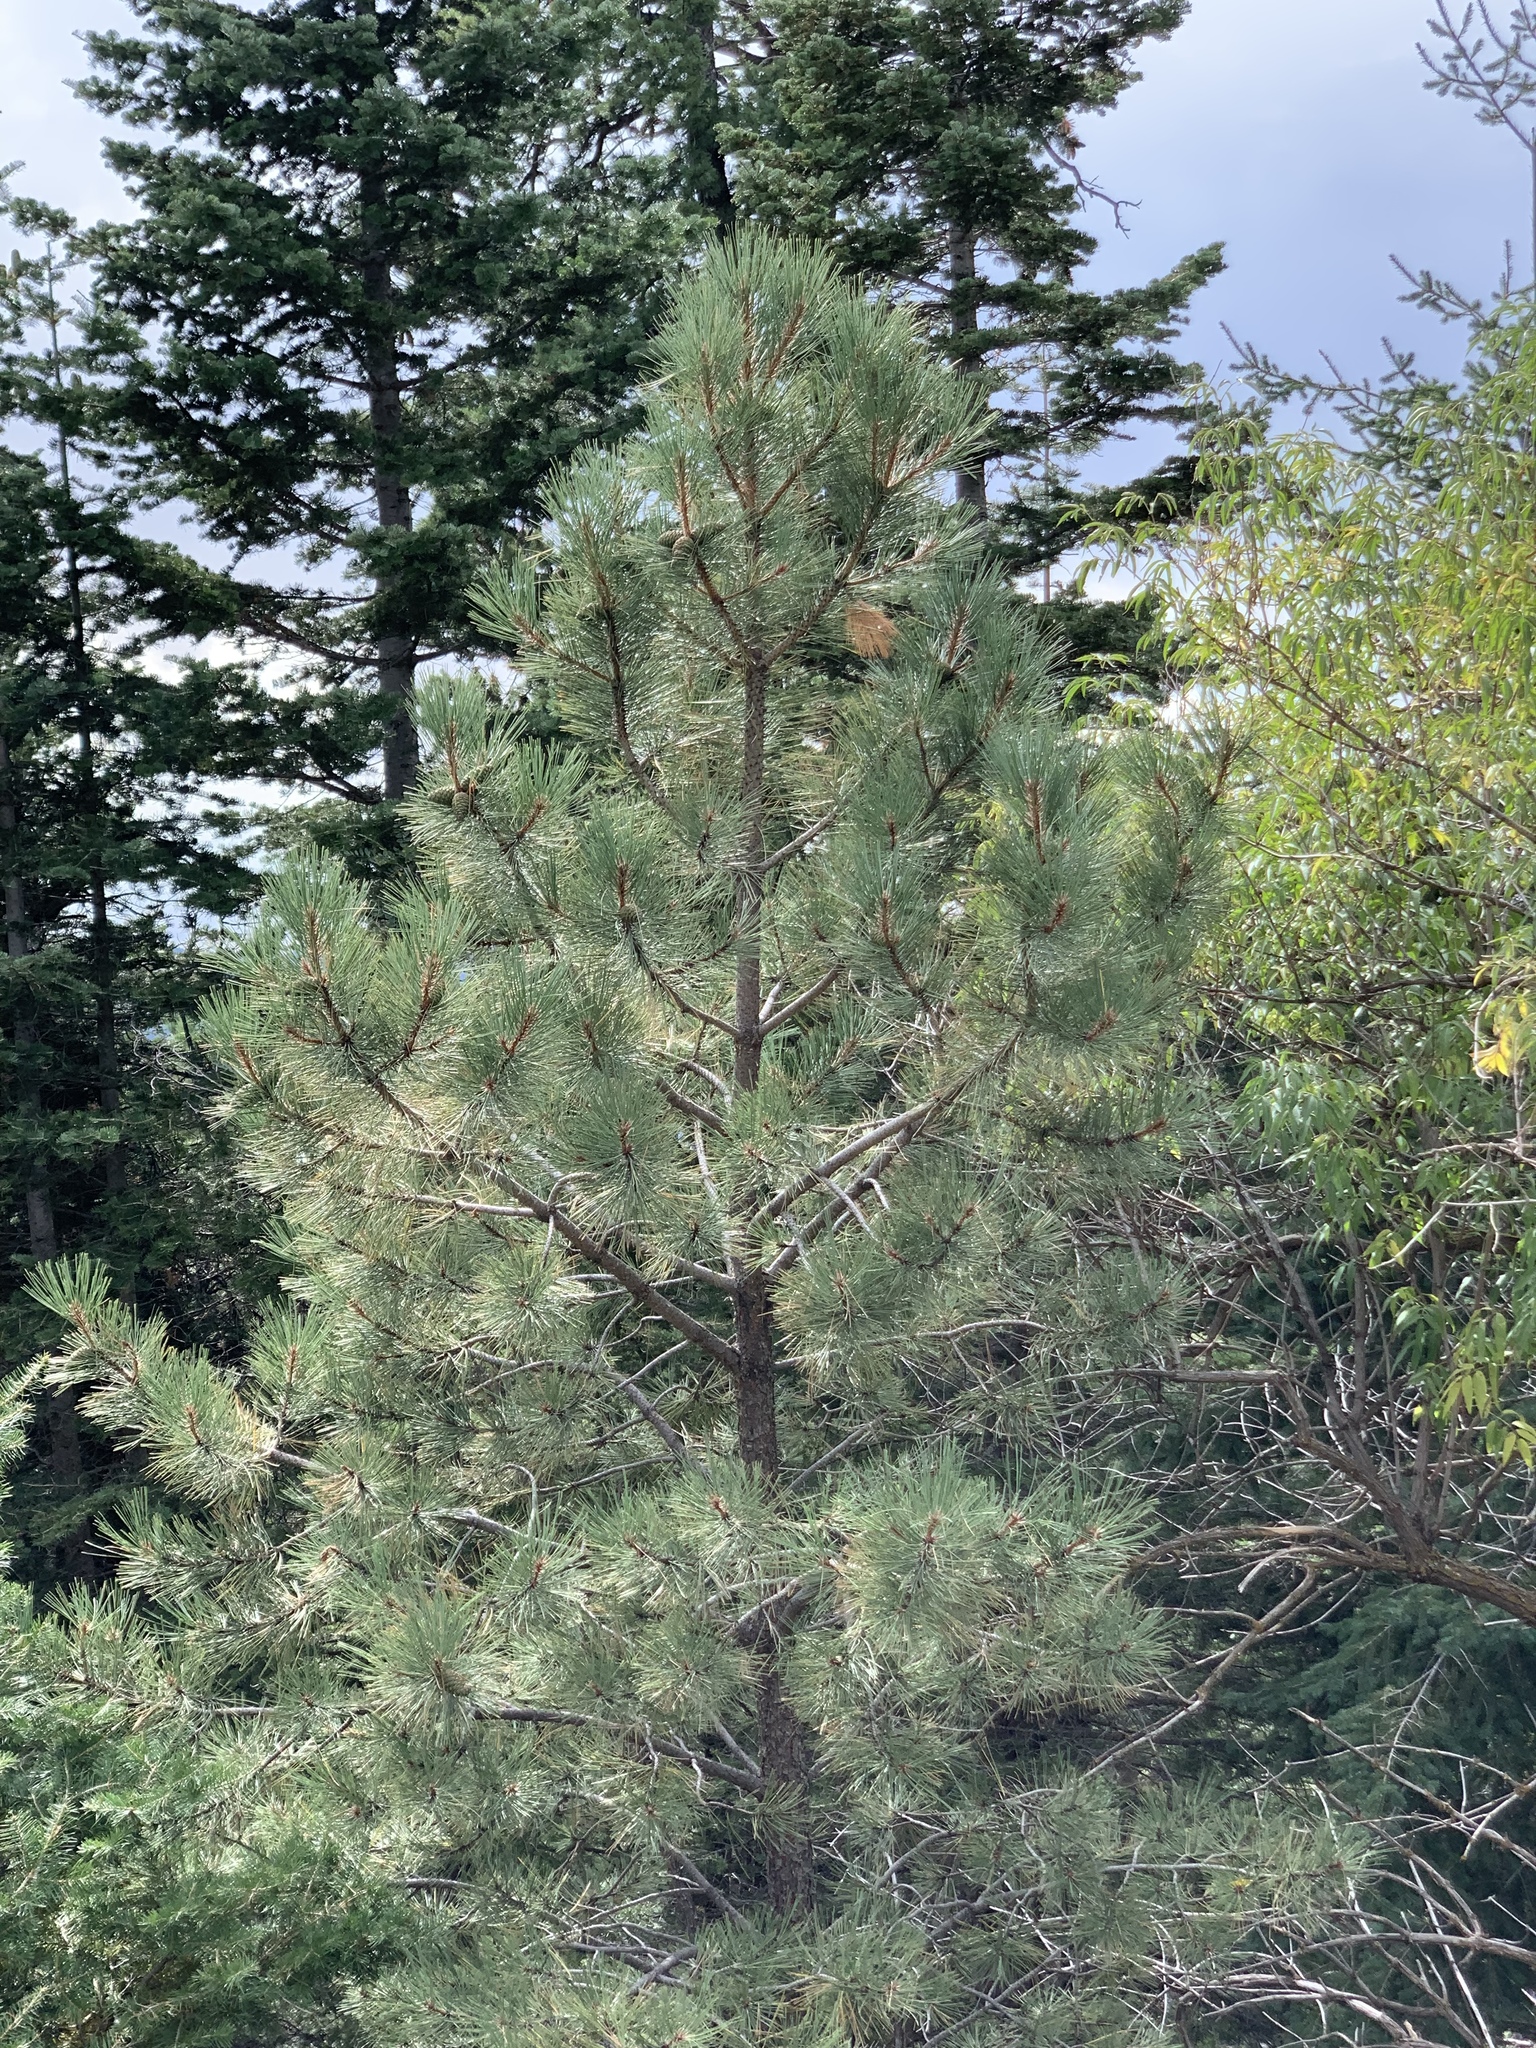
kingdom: Plantae
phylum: Tracheophyta
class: Pinopsida
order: Pinales
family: Pinaceae
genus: Pinus
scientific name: Pinus ponderosa
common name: Western yellow-pine
